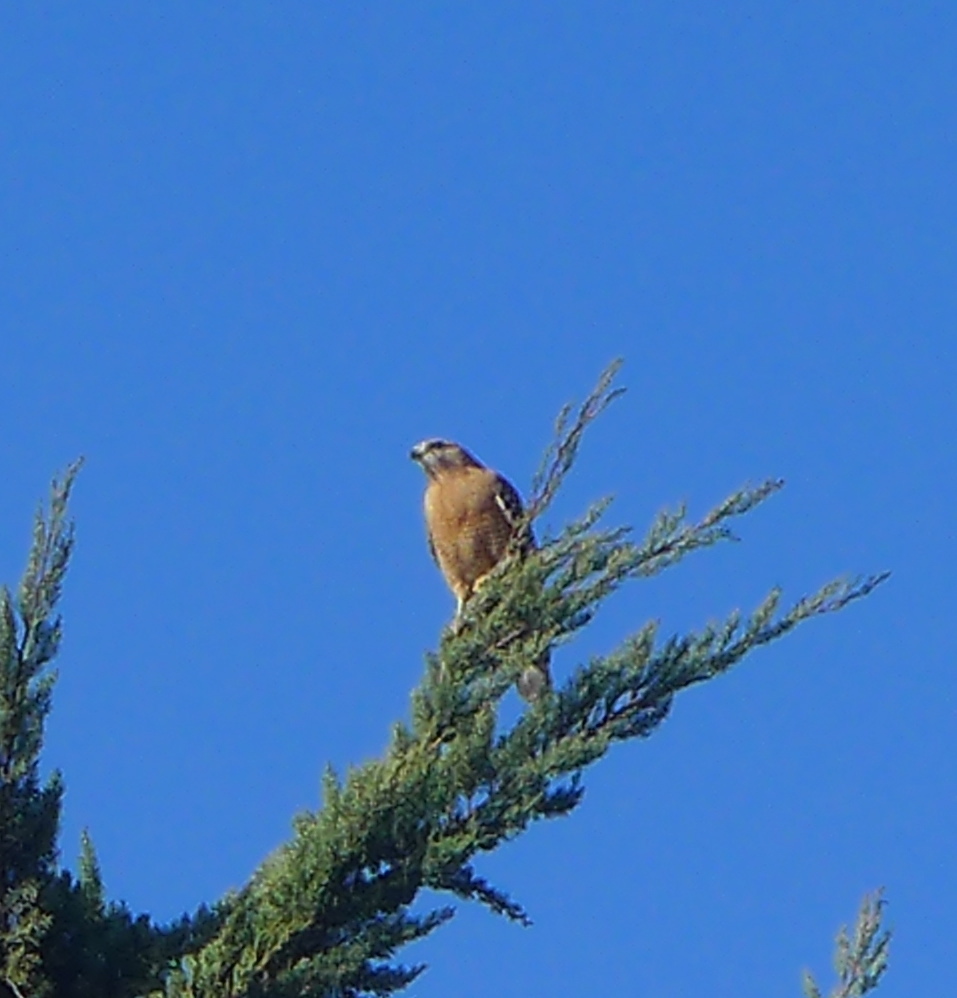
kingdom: Animalia
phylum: Chordata
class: Aves
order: Accipitriformes
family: Accipitridae
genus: Buteo
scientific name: Buteo lineatus
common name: Red-shouldered hawk
